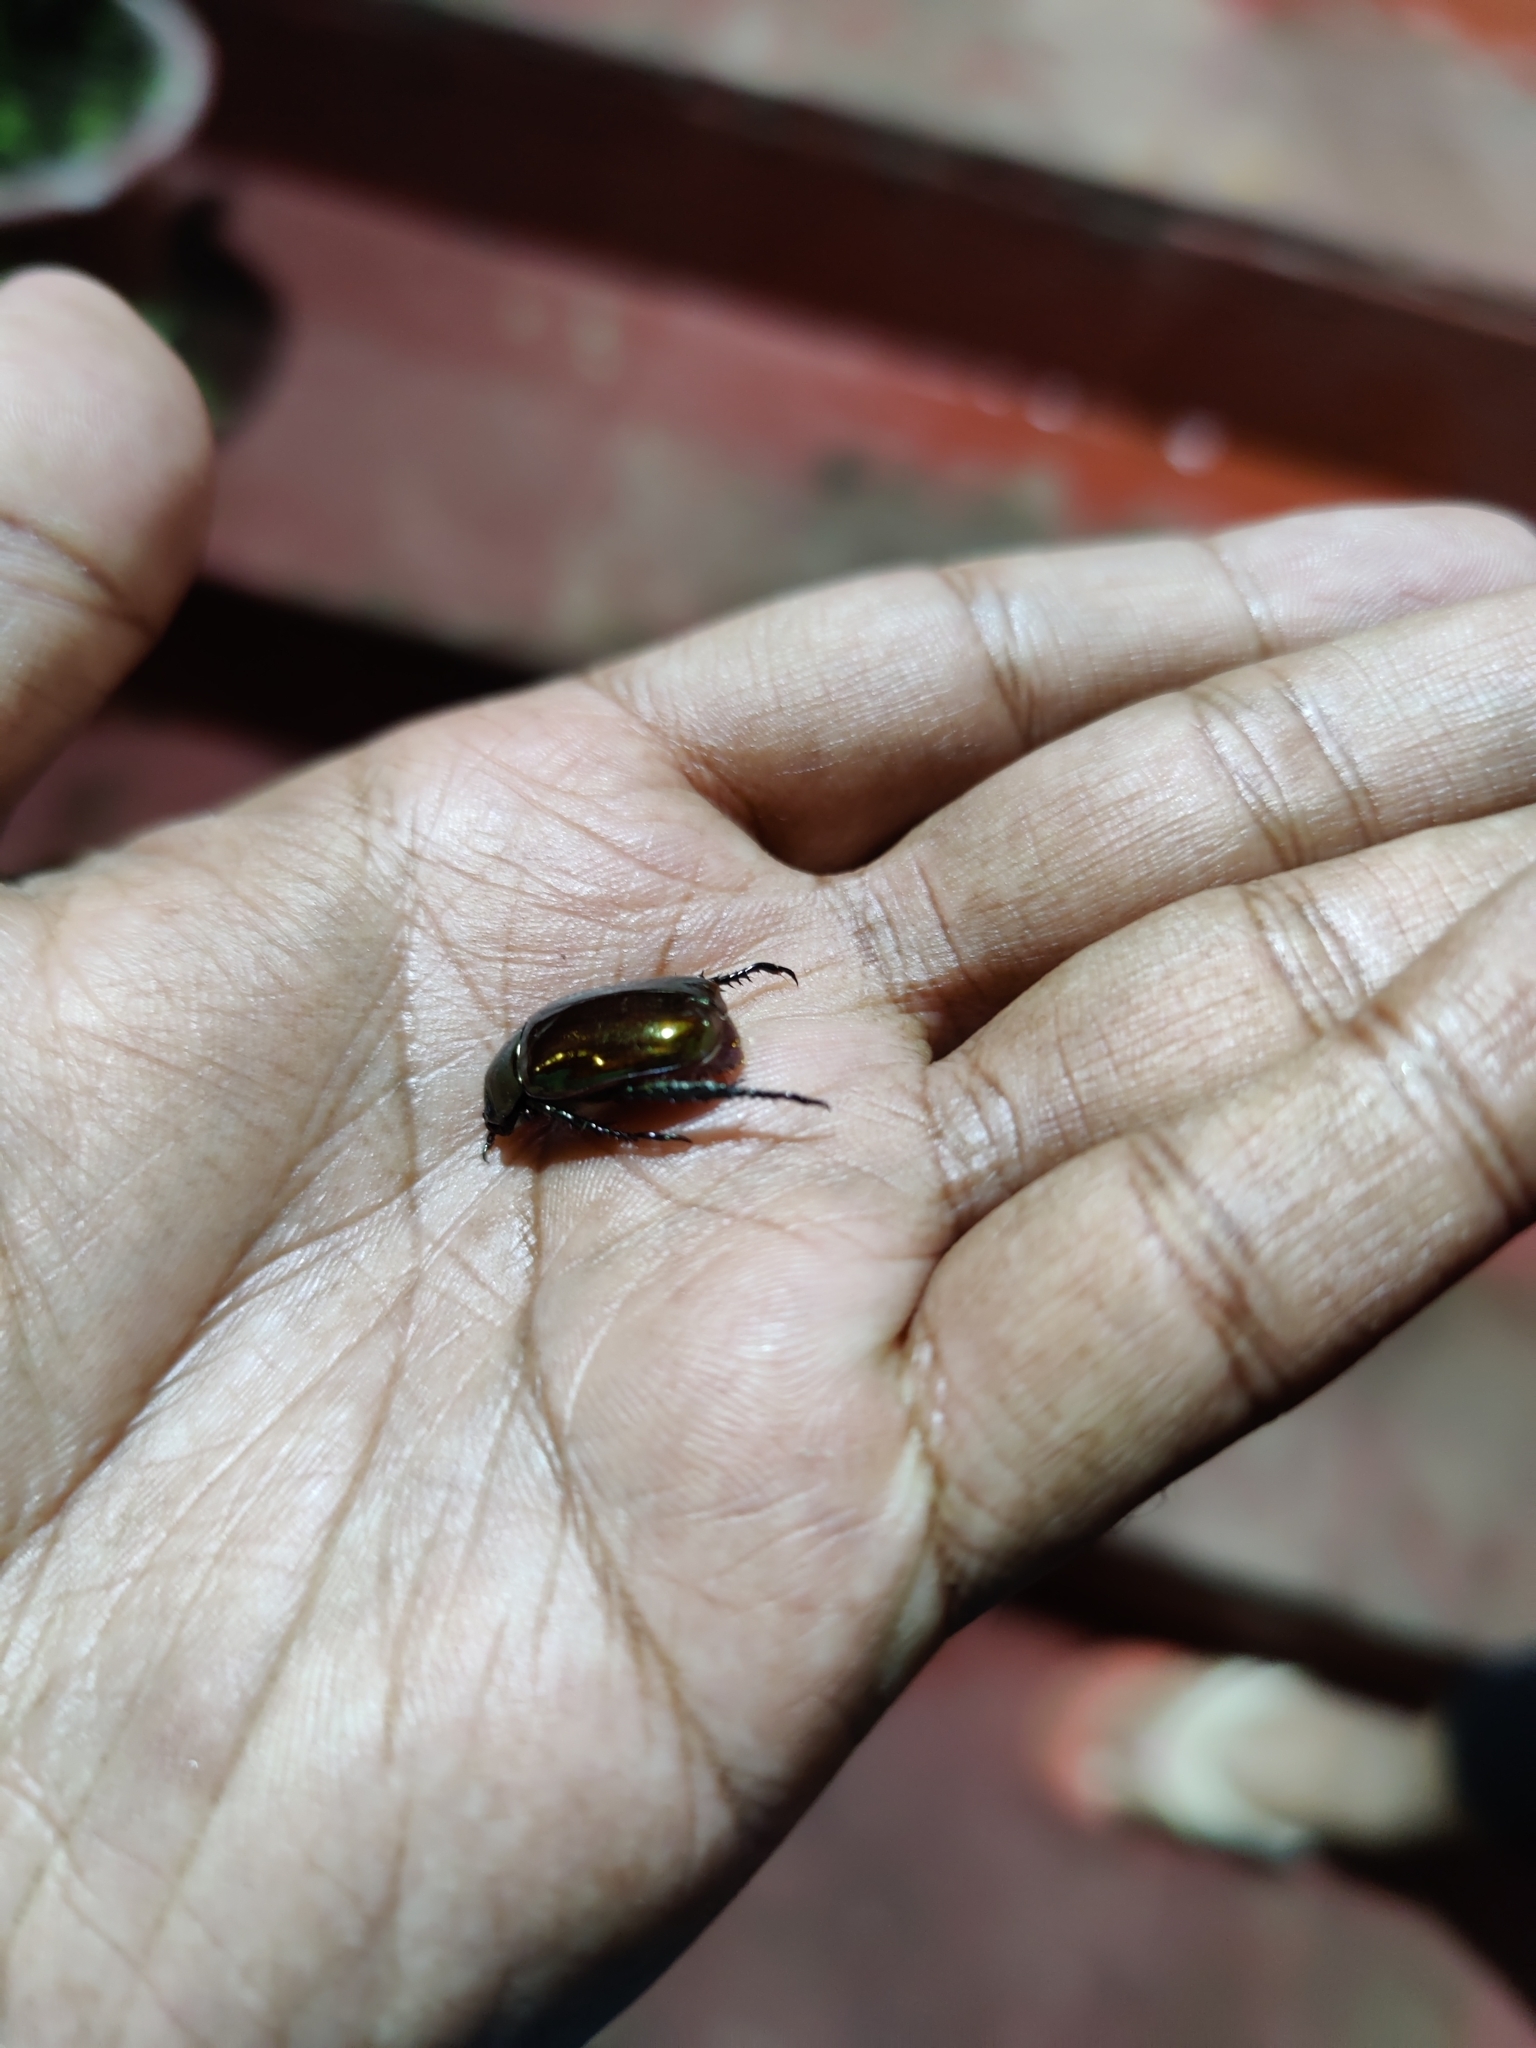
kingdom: Animalia
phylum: Arthropoda
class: Insecta
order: Coleoptera
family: Scarabaeidae
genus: Anomala
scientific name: Anomala rufiventris
